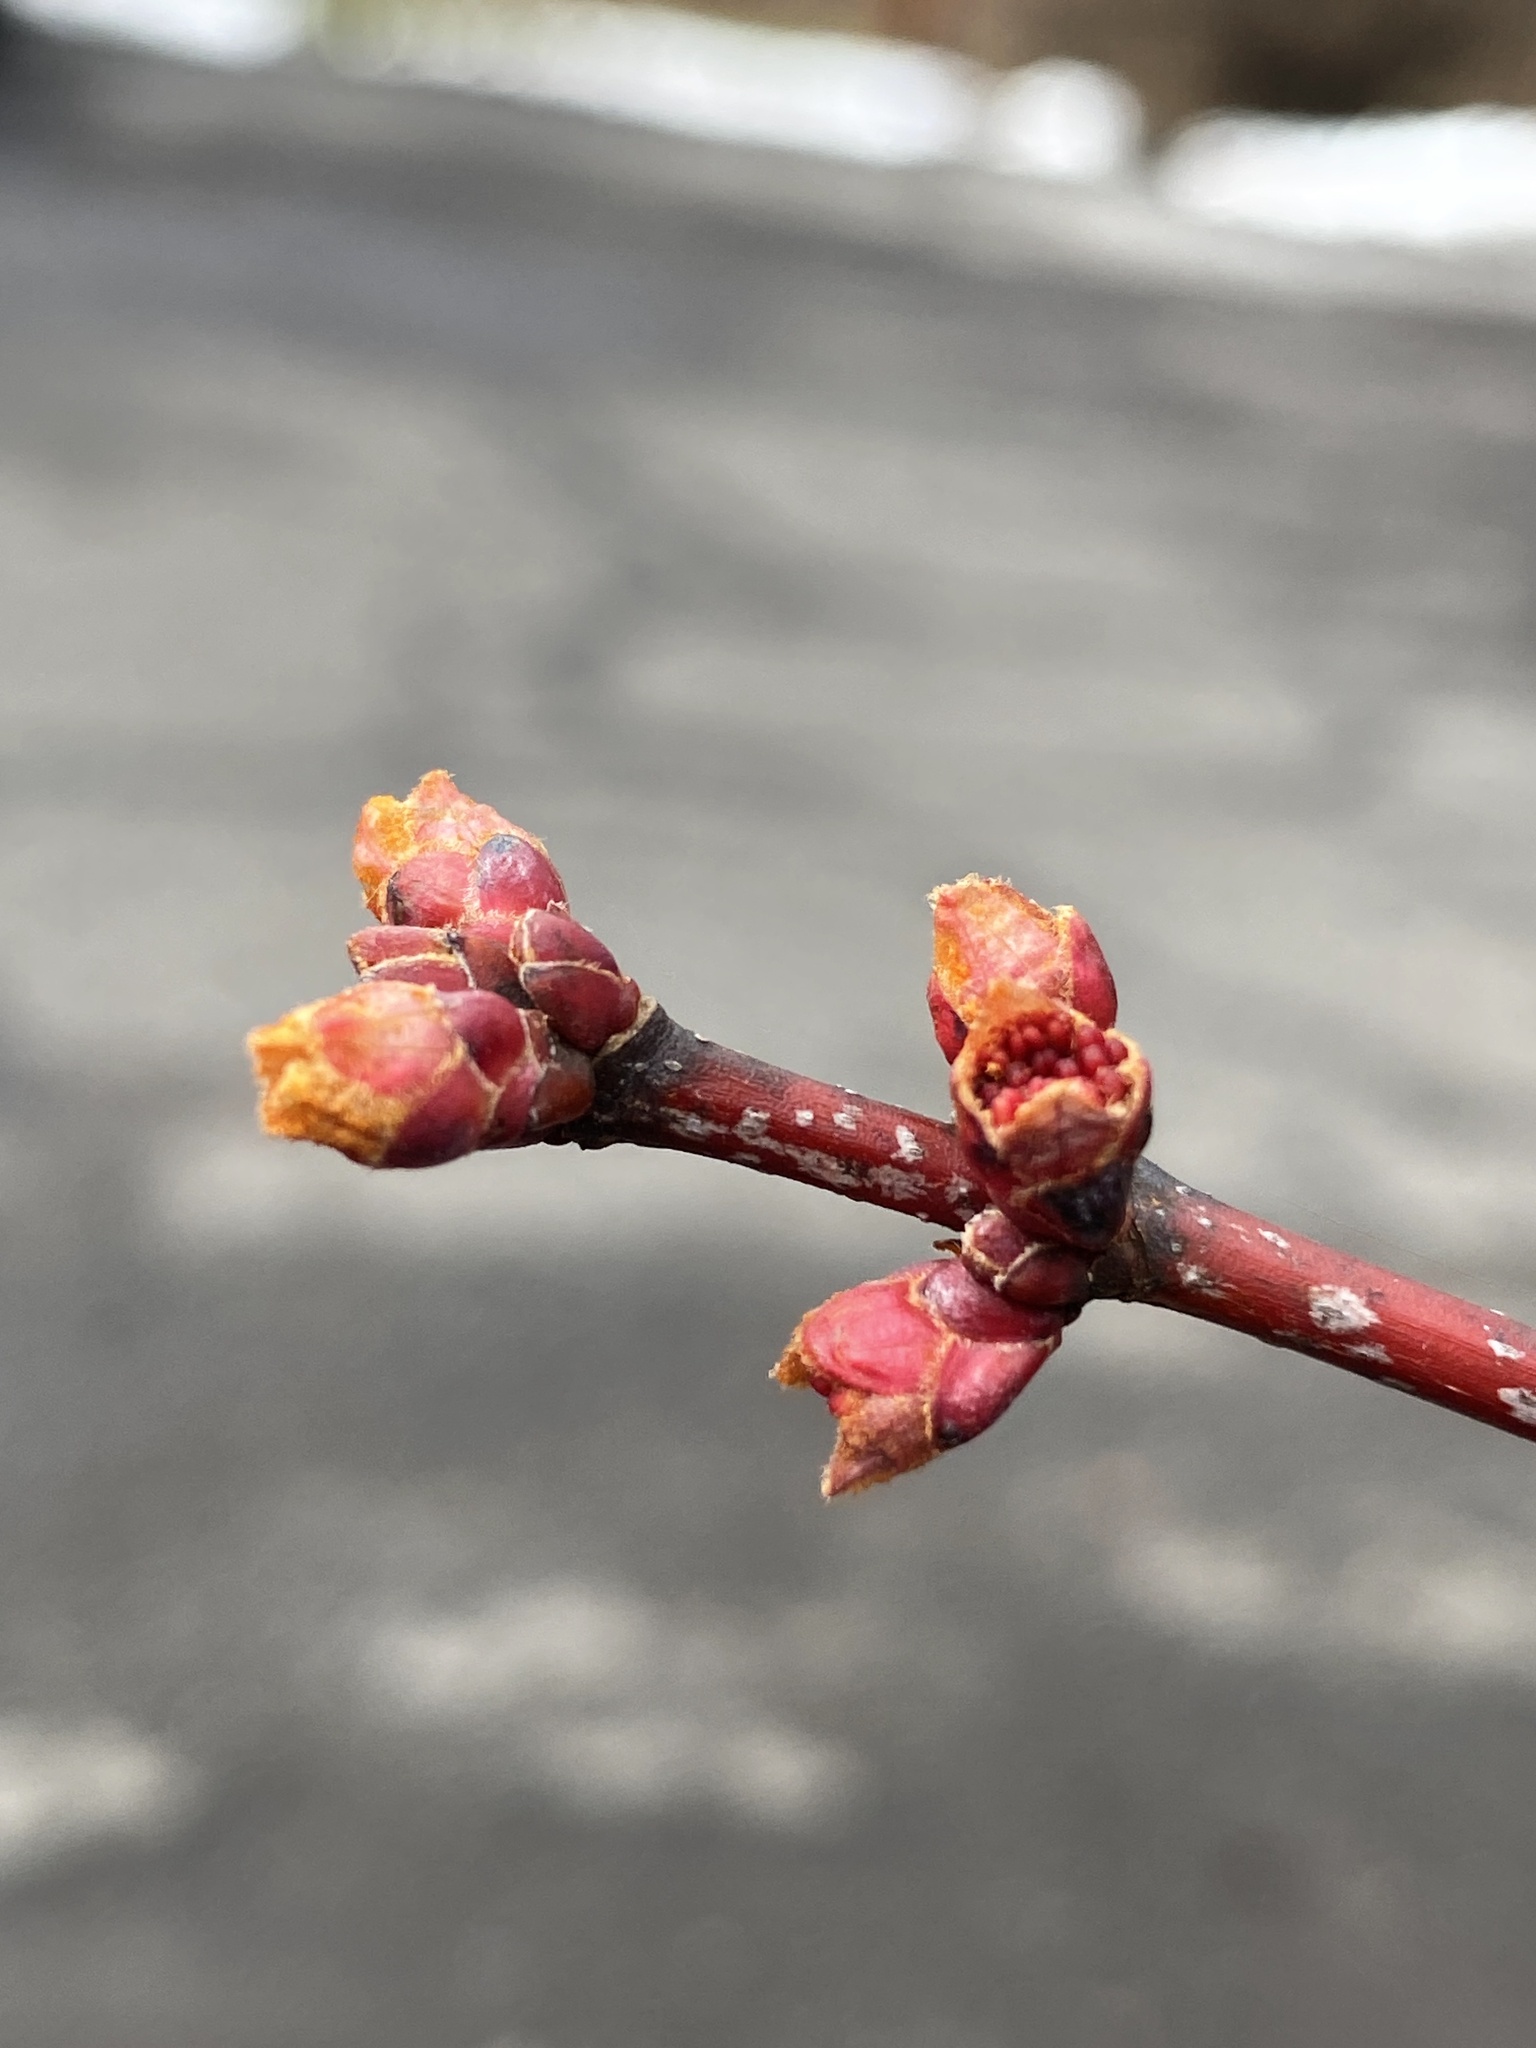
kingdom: Plantae
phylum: Tracheophyta
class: Magnoliopsida
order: Sapindales
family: Sapindaceae
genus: Acer
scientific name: Acer rubrum
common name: Red maple
